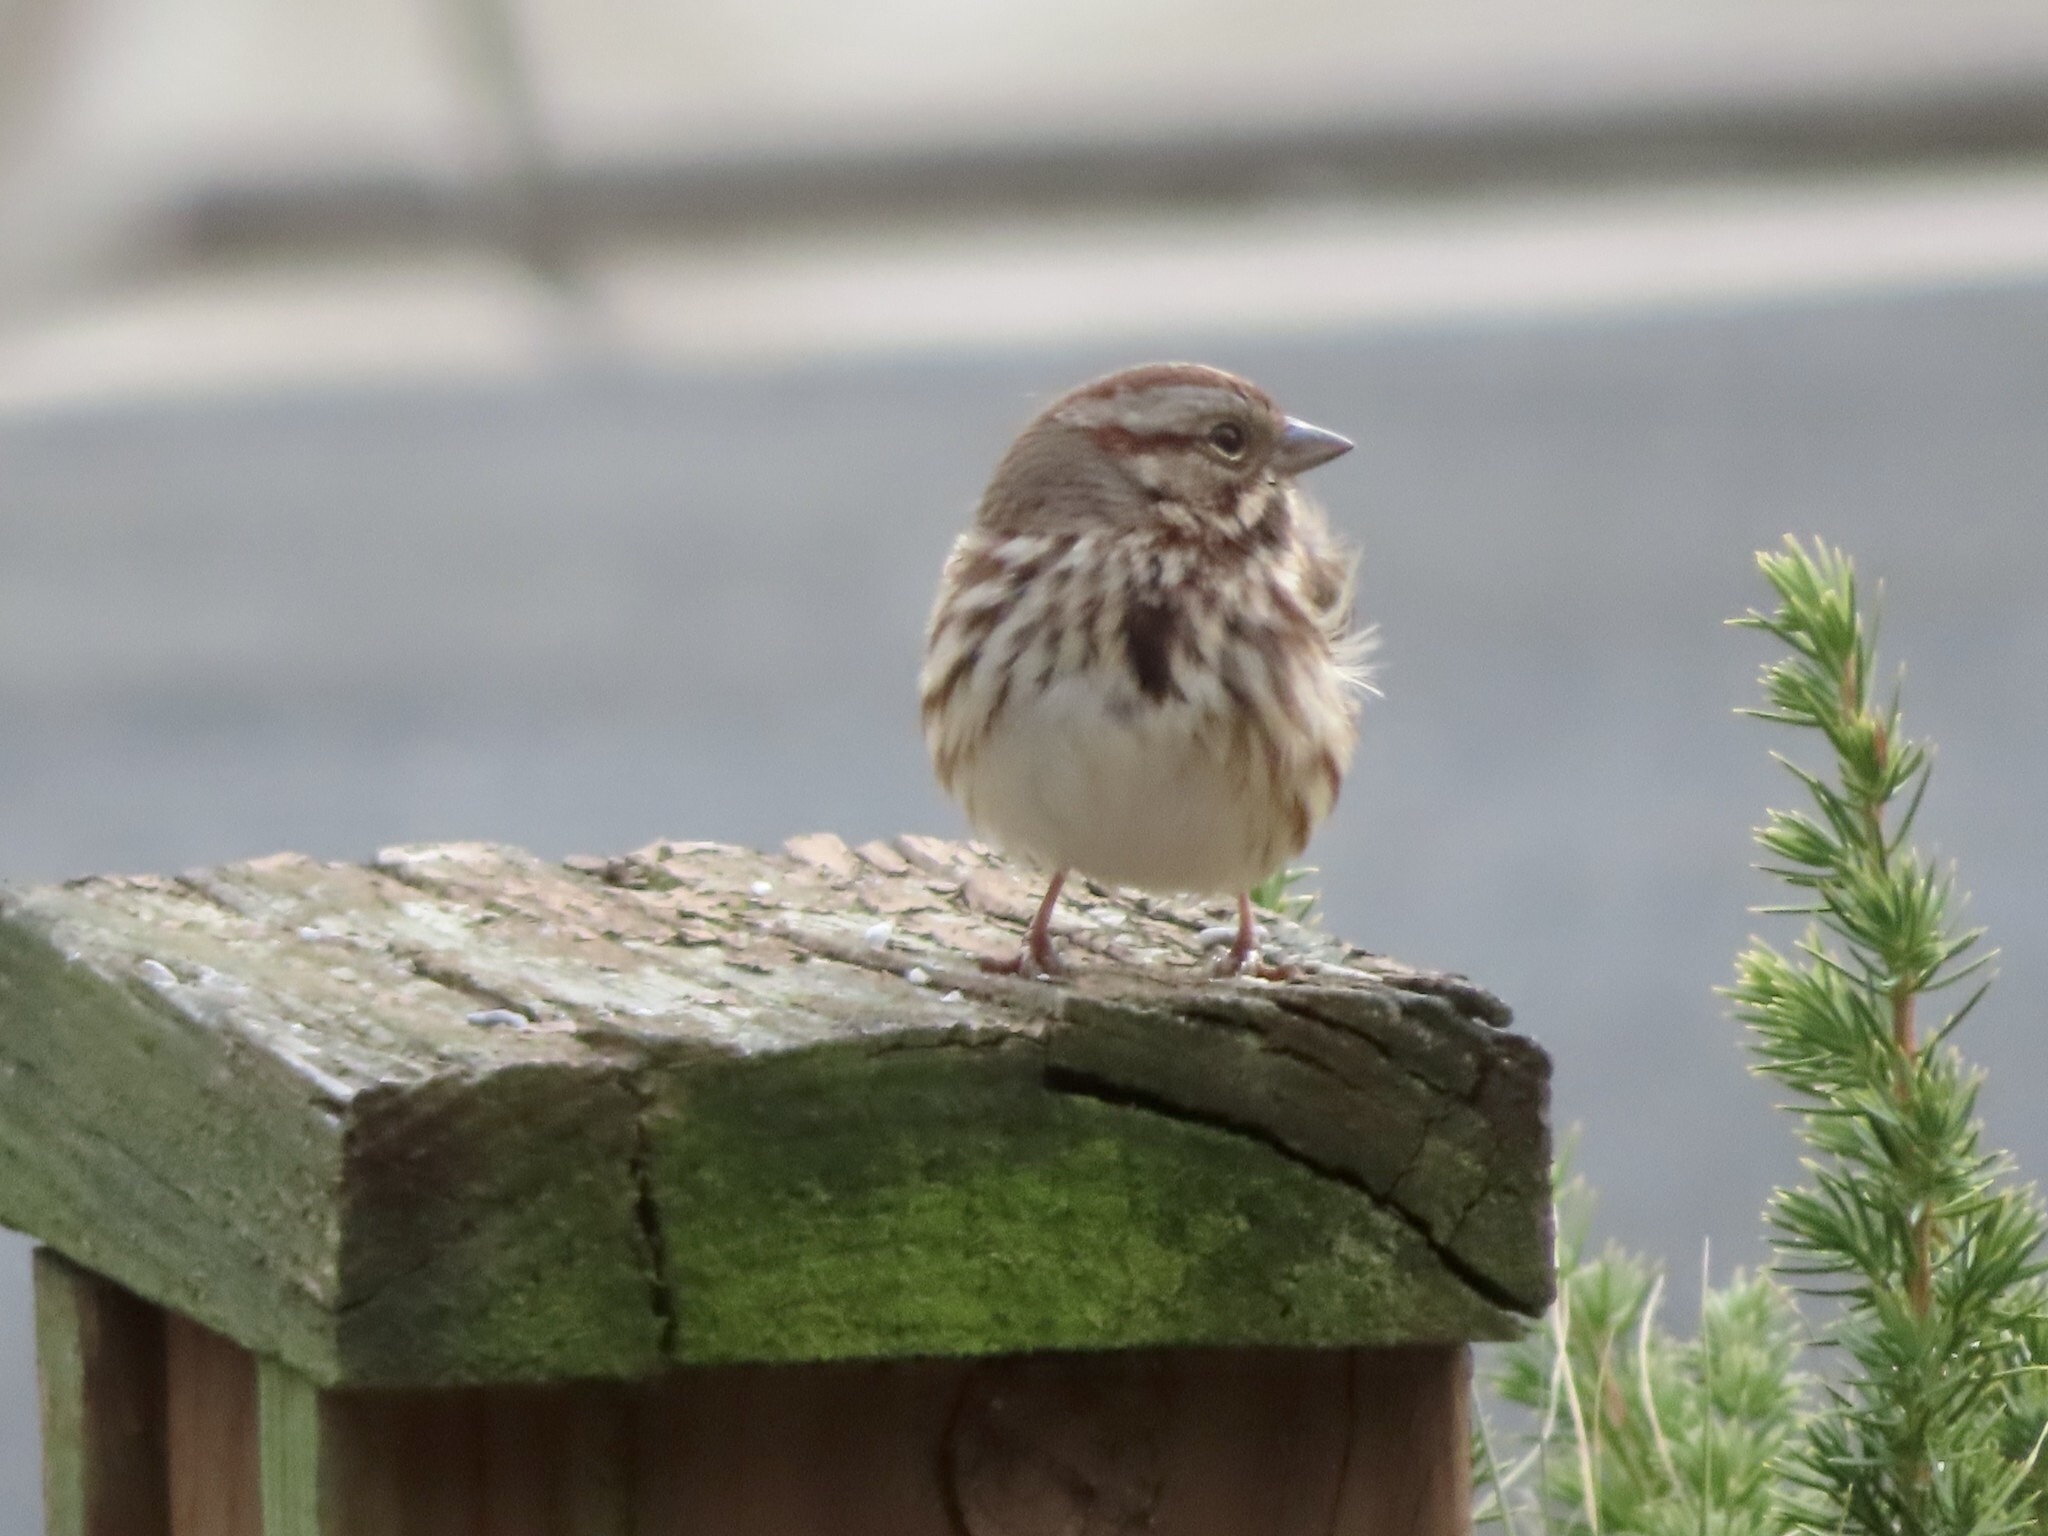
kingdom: Animalia
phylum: Chordata
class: Aves
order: Passeriformes
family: Passerellidae
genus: Melospiza
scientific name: Melospiza melodia
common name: Song sparrow
